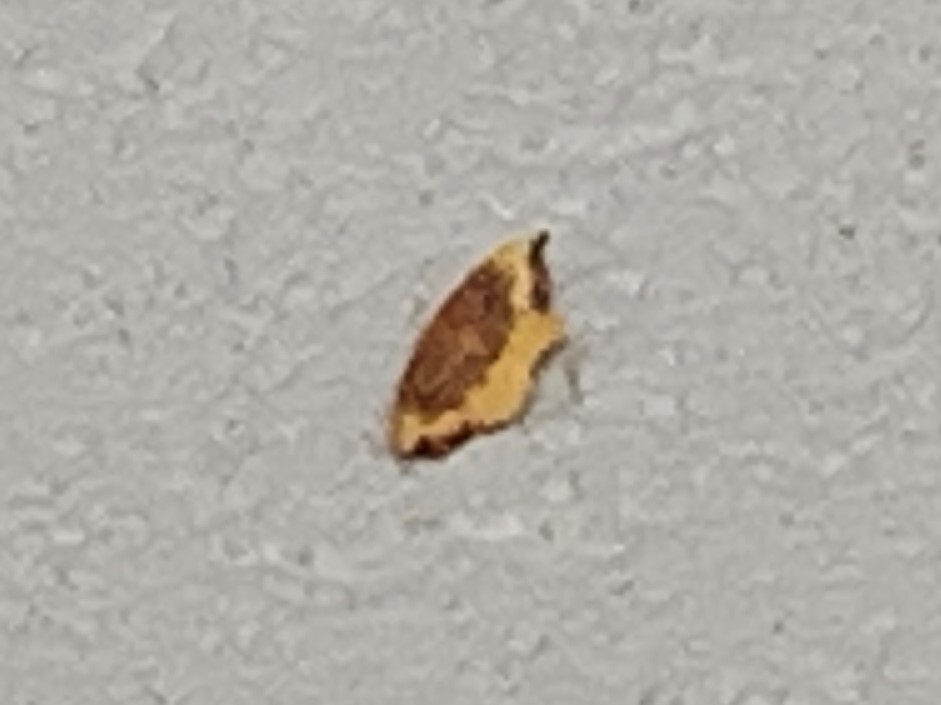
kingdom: Animalia
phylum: Arthropoda
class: Insecta
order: Lepidoptera
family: Drepanidae
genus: Oreta
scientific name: Oreta rosea
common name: Rose hooktip
